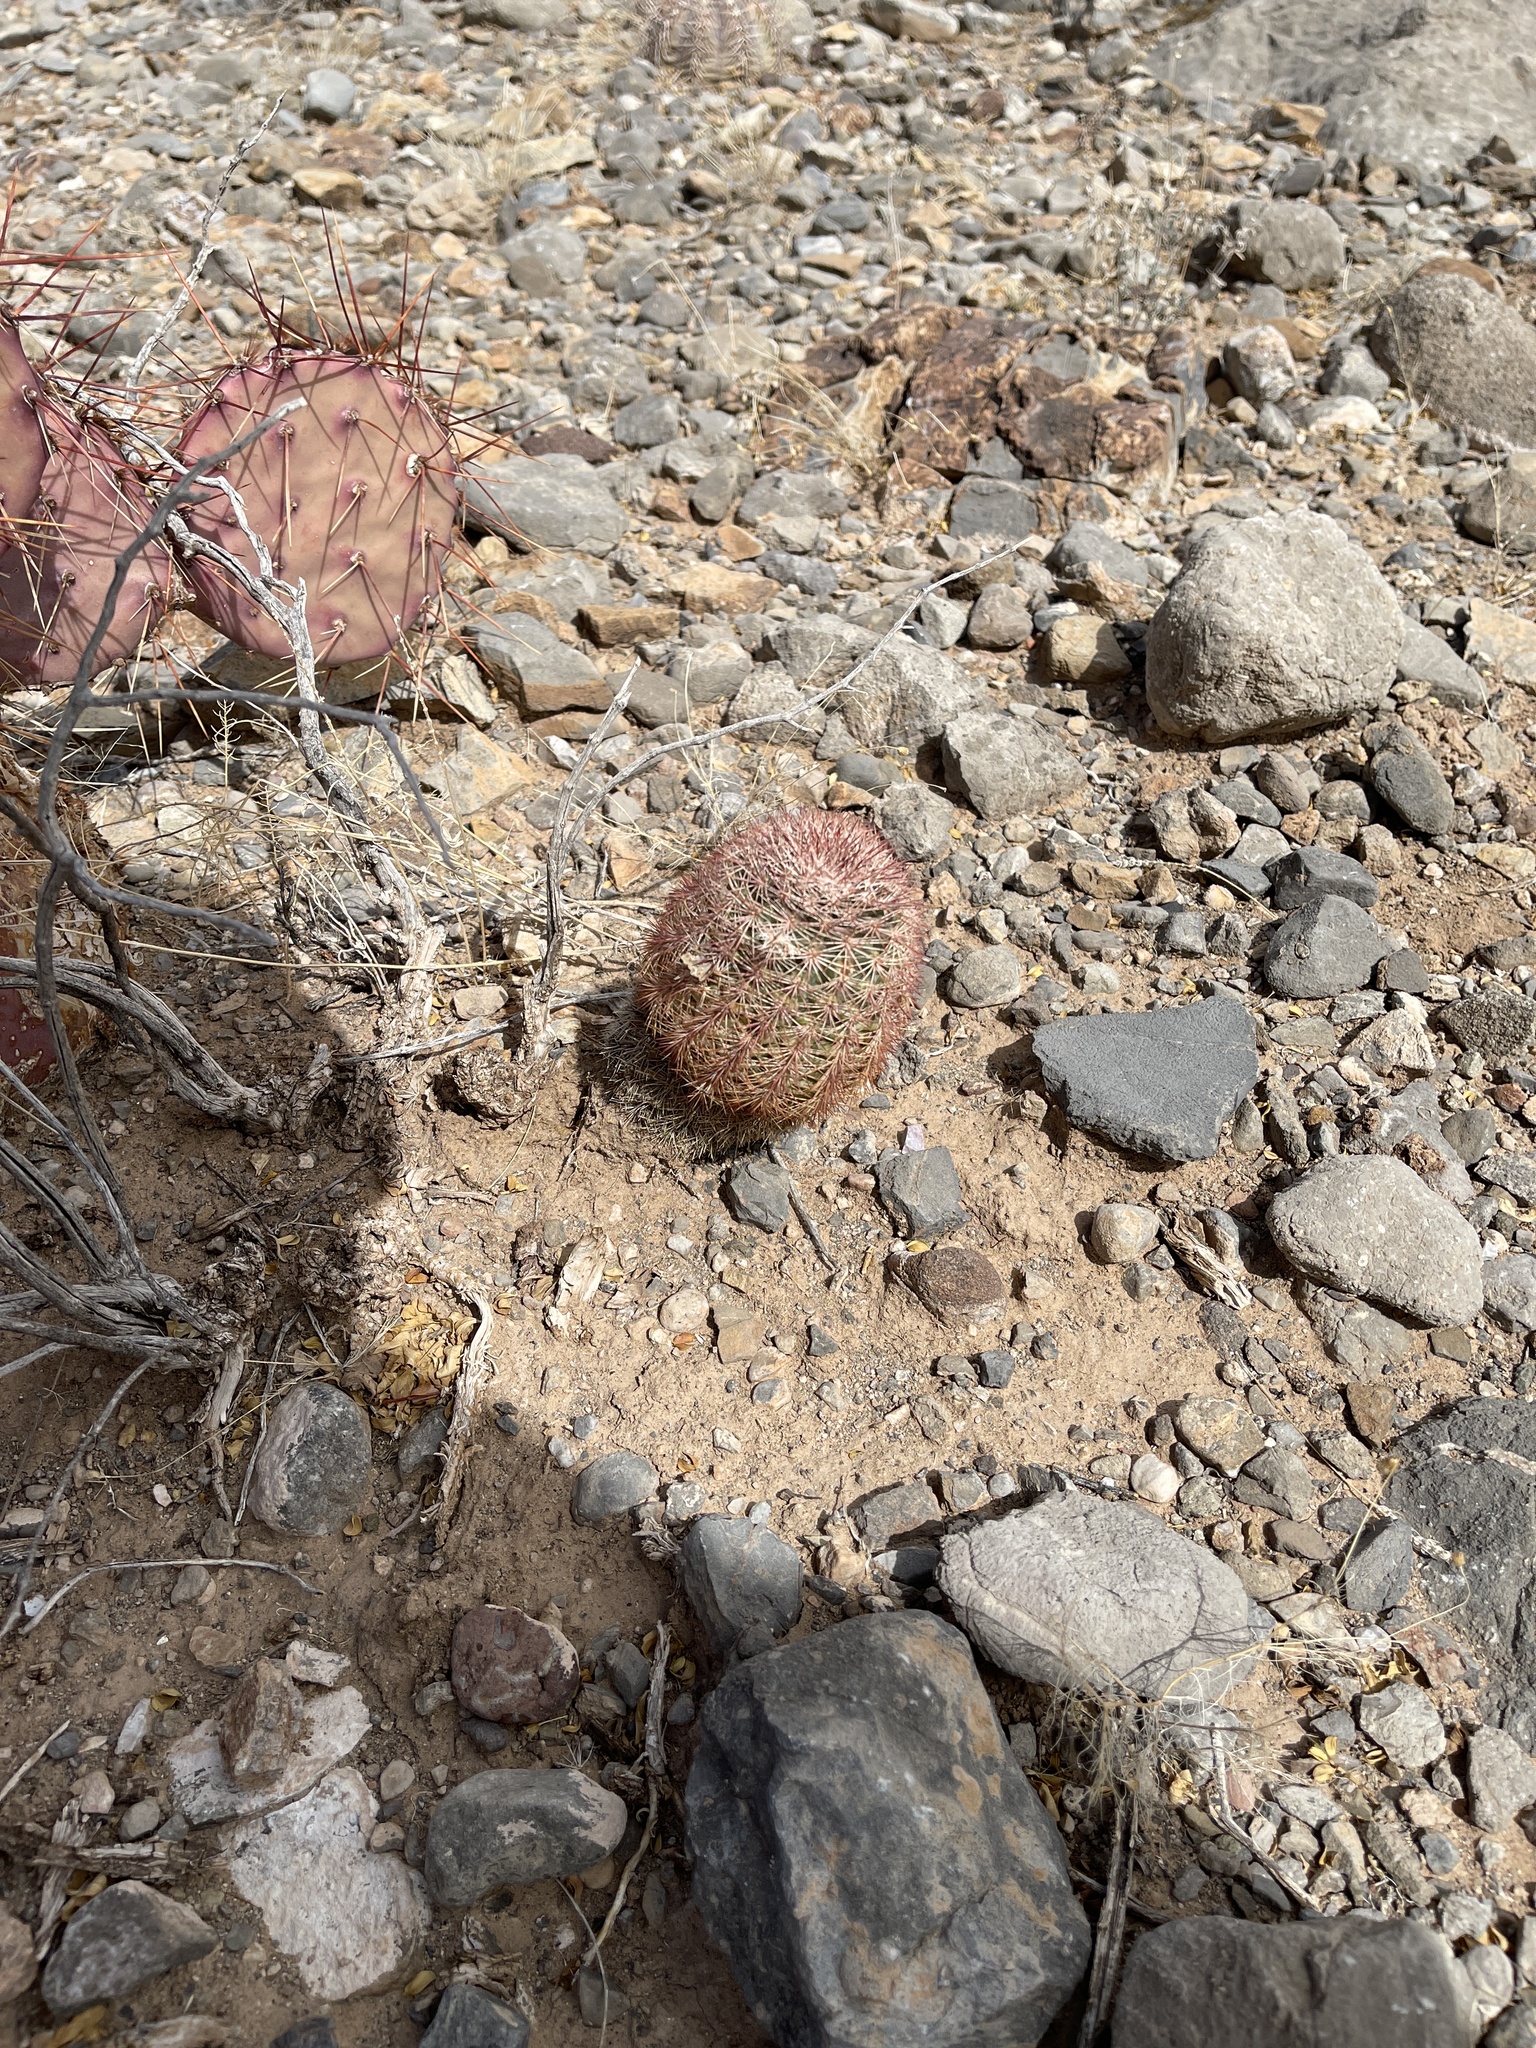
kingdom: Plantae
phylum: Tracheophyta
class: Magnoliopsida
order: Caryophyllales
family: Cactaceae
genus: Echinocereus
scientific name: Echinocereus dasyacanthus
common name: Spiny hedgehog cactus
